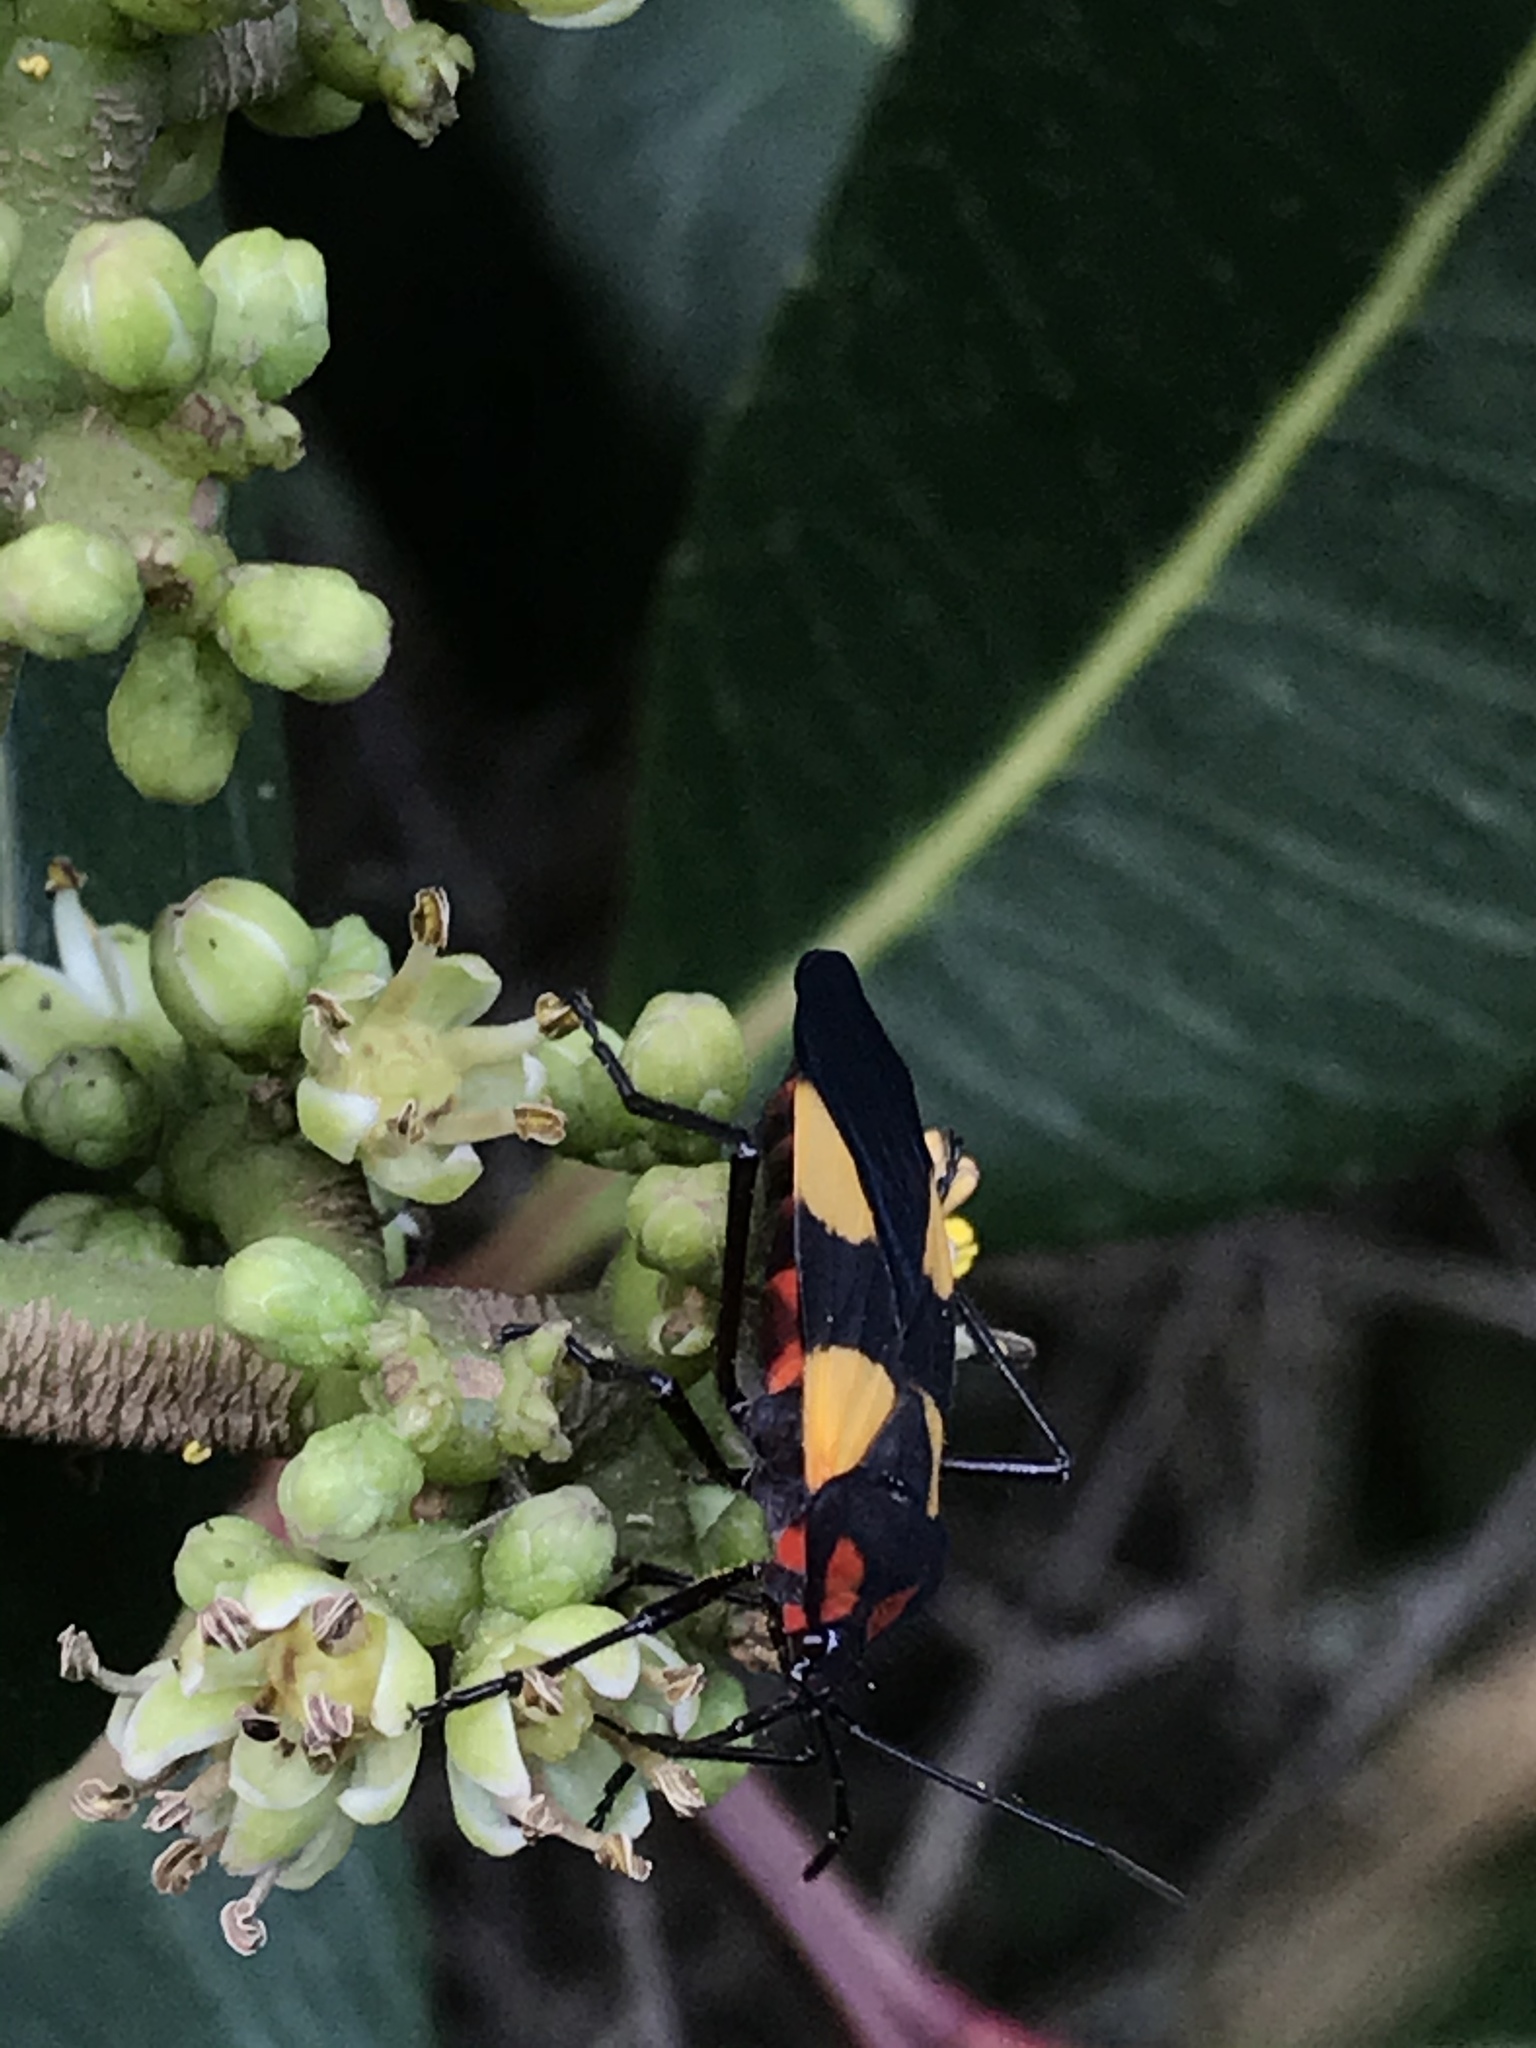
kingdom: Animalia
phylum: Arthropoda
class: Insecta
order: Hemiptera
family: Lygaeidae
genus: Oncopeltus
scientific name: Oncopeltus orourkeae
